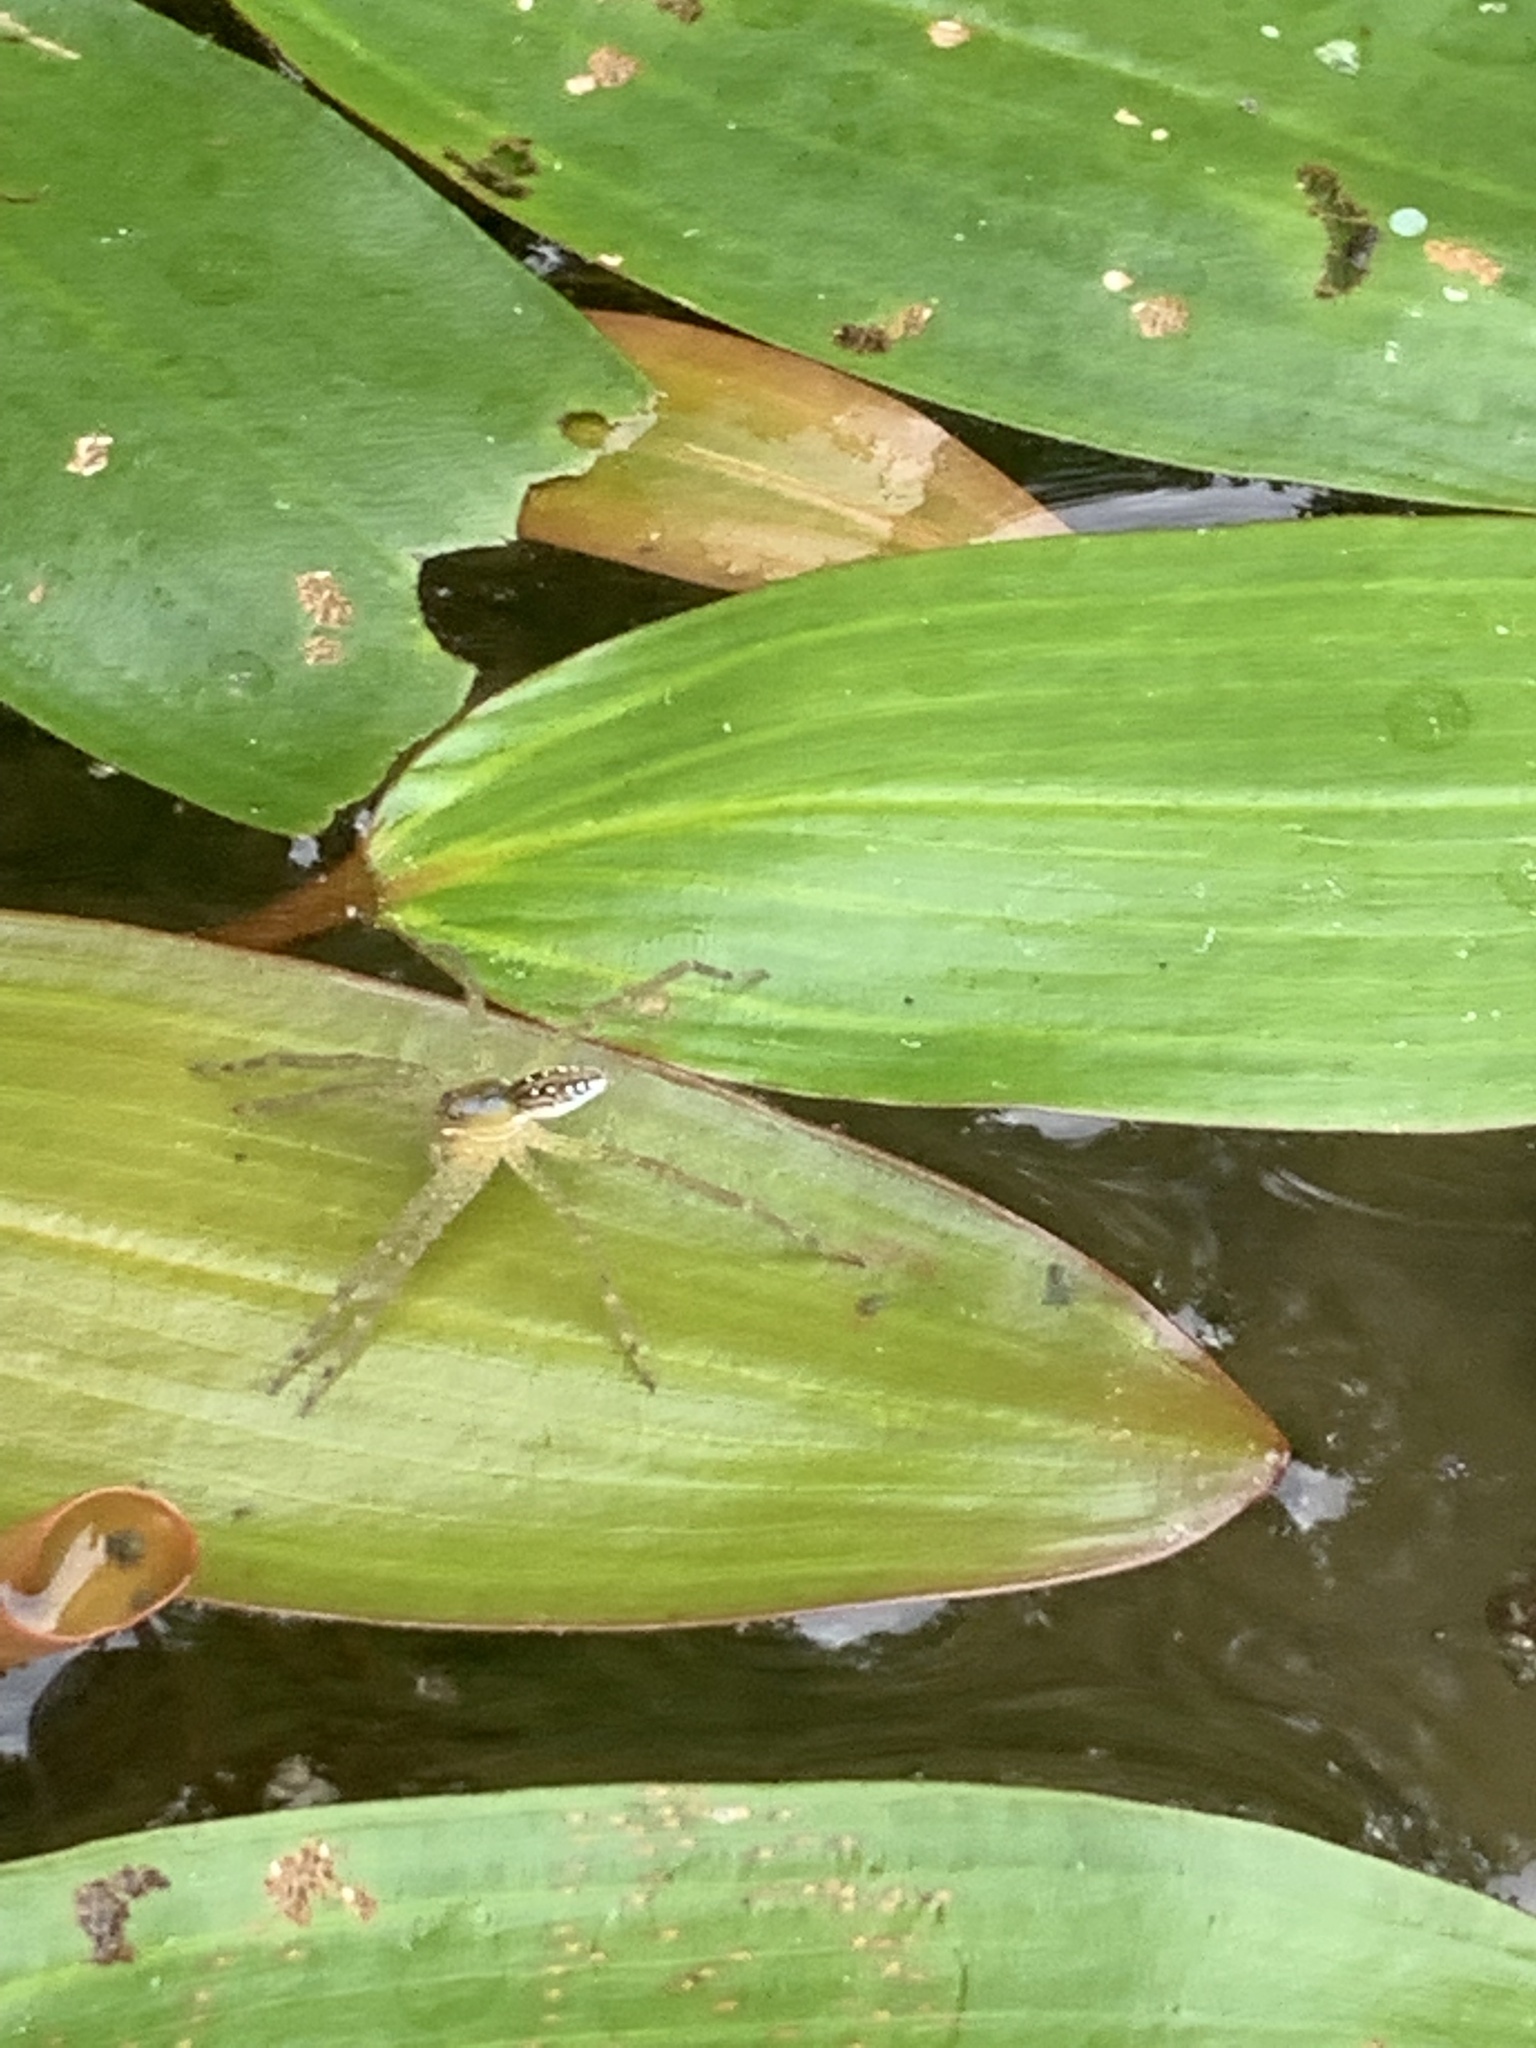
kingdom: Animalia
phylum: Arthropoda
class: Arachnida
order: Araneae
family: Pisauridae
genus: Dolomedes
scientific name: Dolomedes triton
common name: Six-spotted fishing spider
